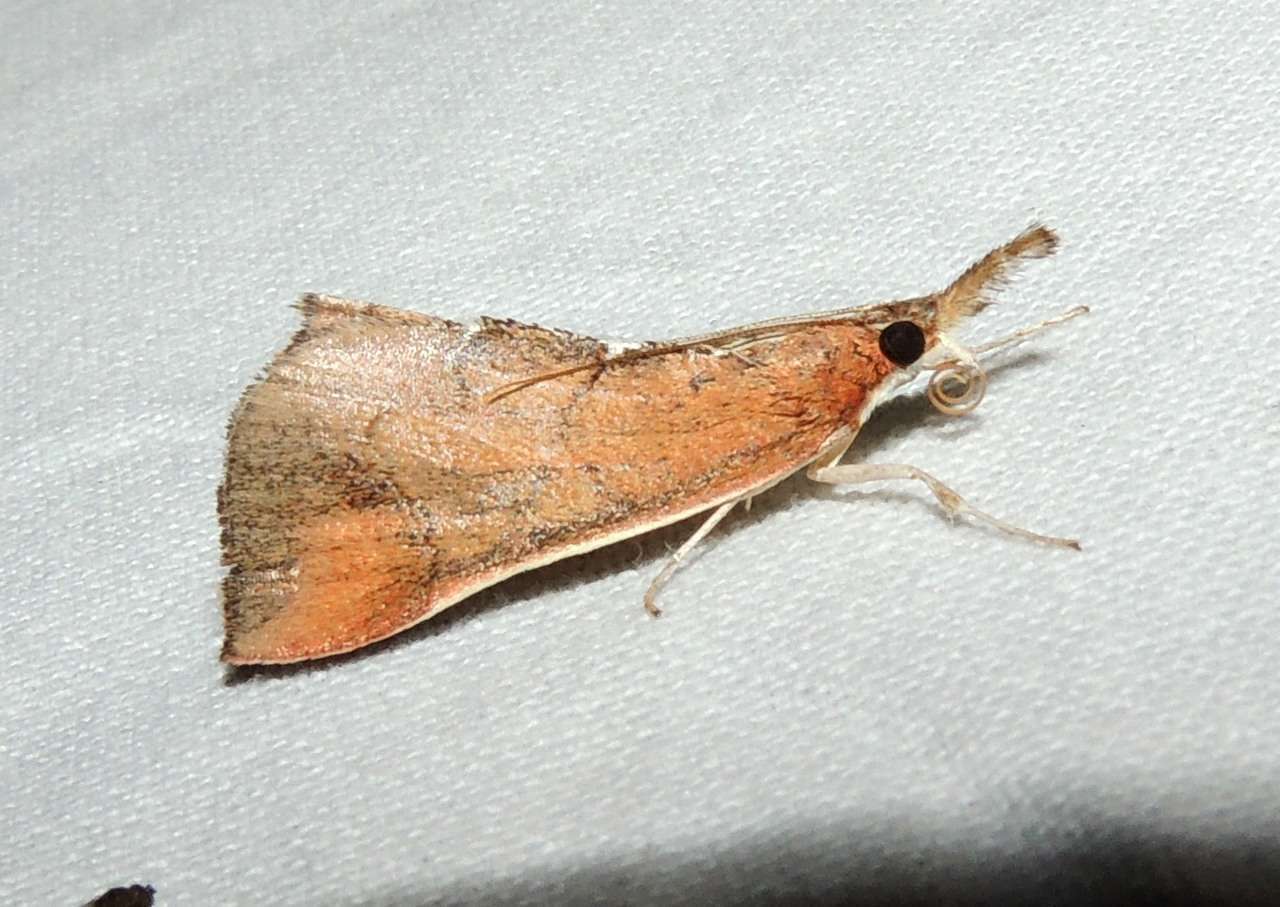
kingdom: Animalia
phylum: Arthropoda
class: Insecta
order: Lepidoptera
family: Pyralidae
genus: Anemosa
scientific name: Anemosa exanthes
